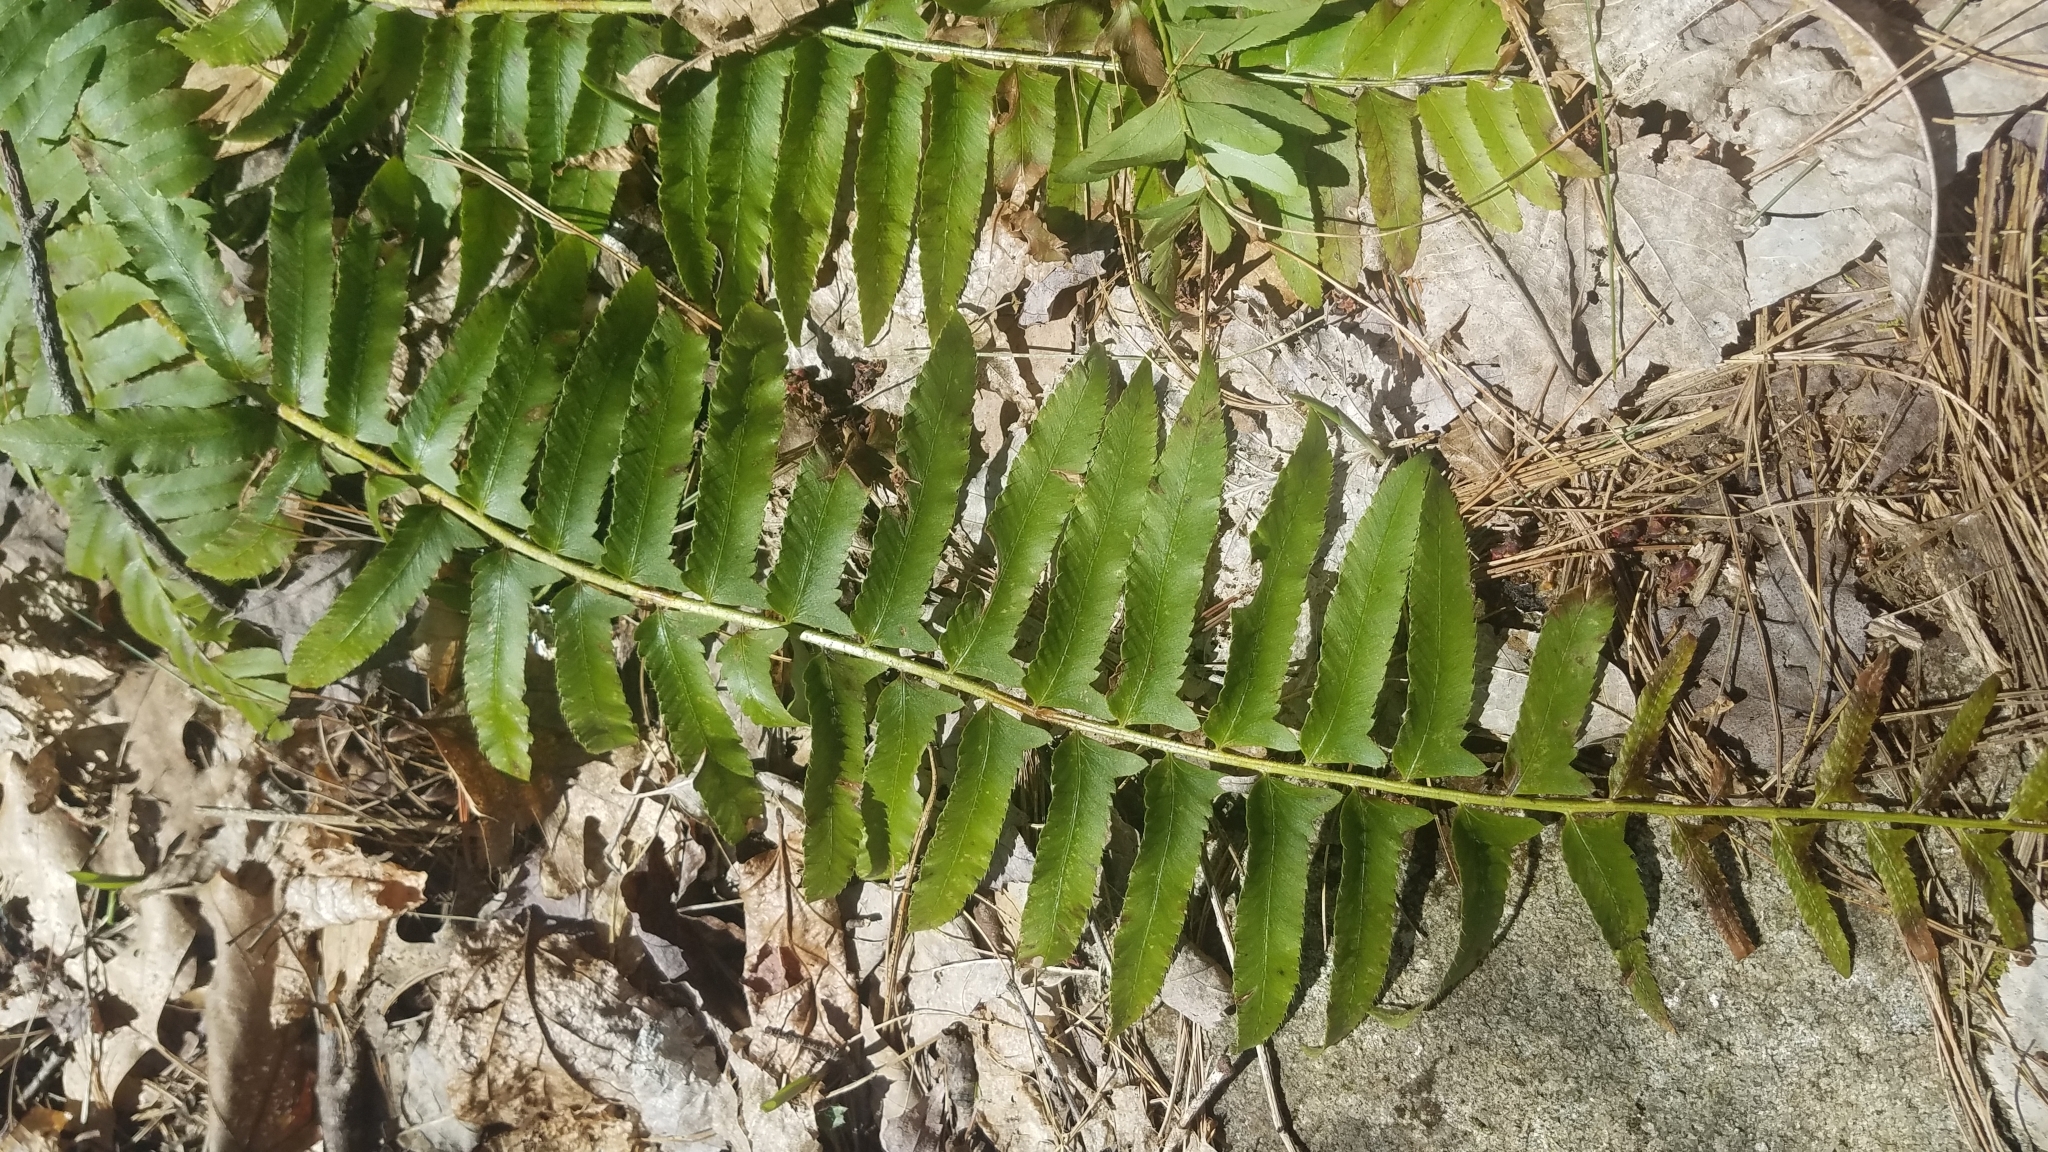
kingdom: Plantae
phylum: Tracheophyta
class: Polypodiopsida
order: Polypodiales
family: Dryopteridaceae
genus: Polystichum
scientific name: Polystichum acrostichoides
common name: Christmas fern
